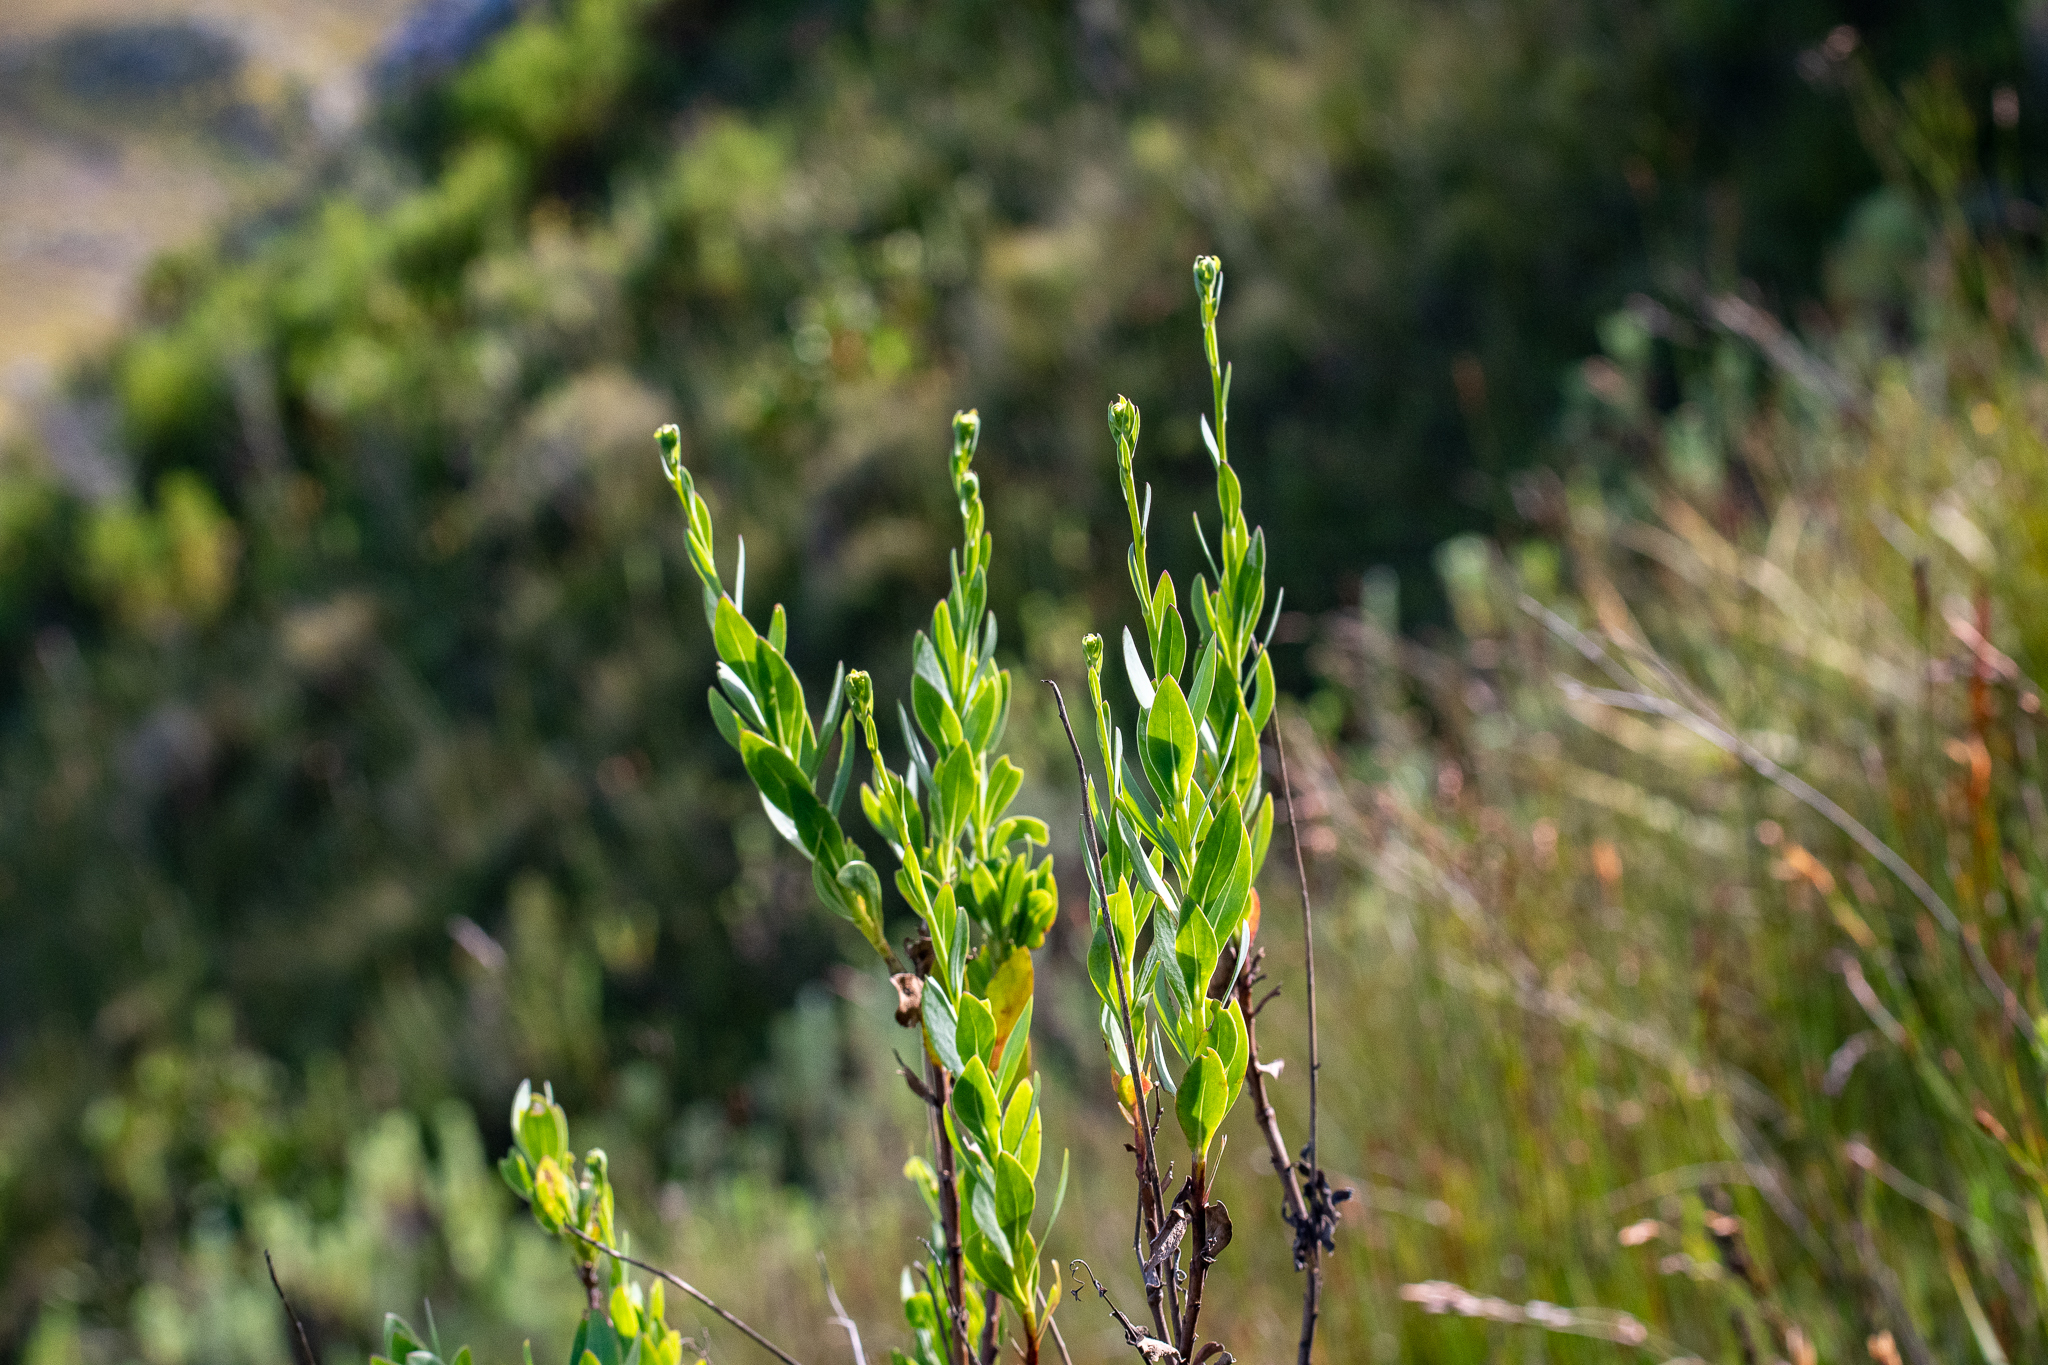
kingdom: Plantae
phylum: Tracheophyta
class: Magnoliopsida
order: Asterales
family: Asteraceae
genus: Othonna
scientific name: Othonna quinquedentata
